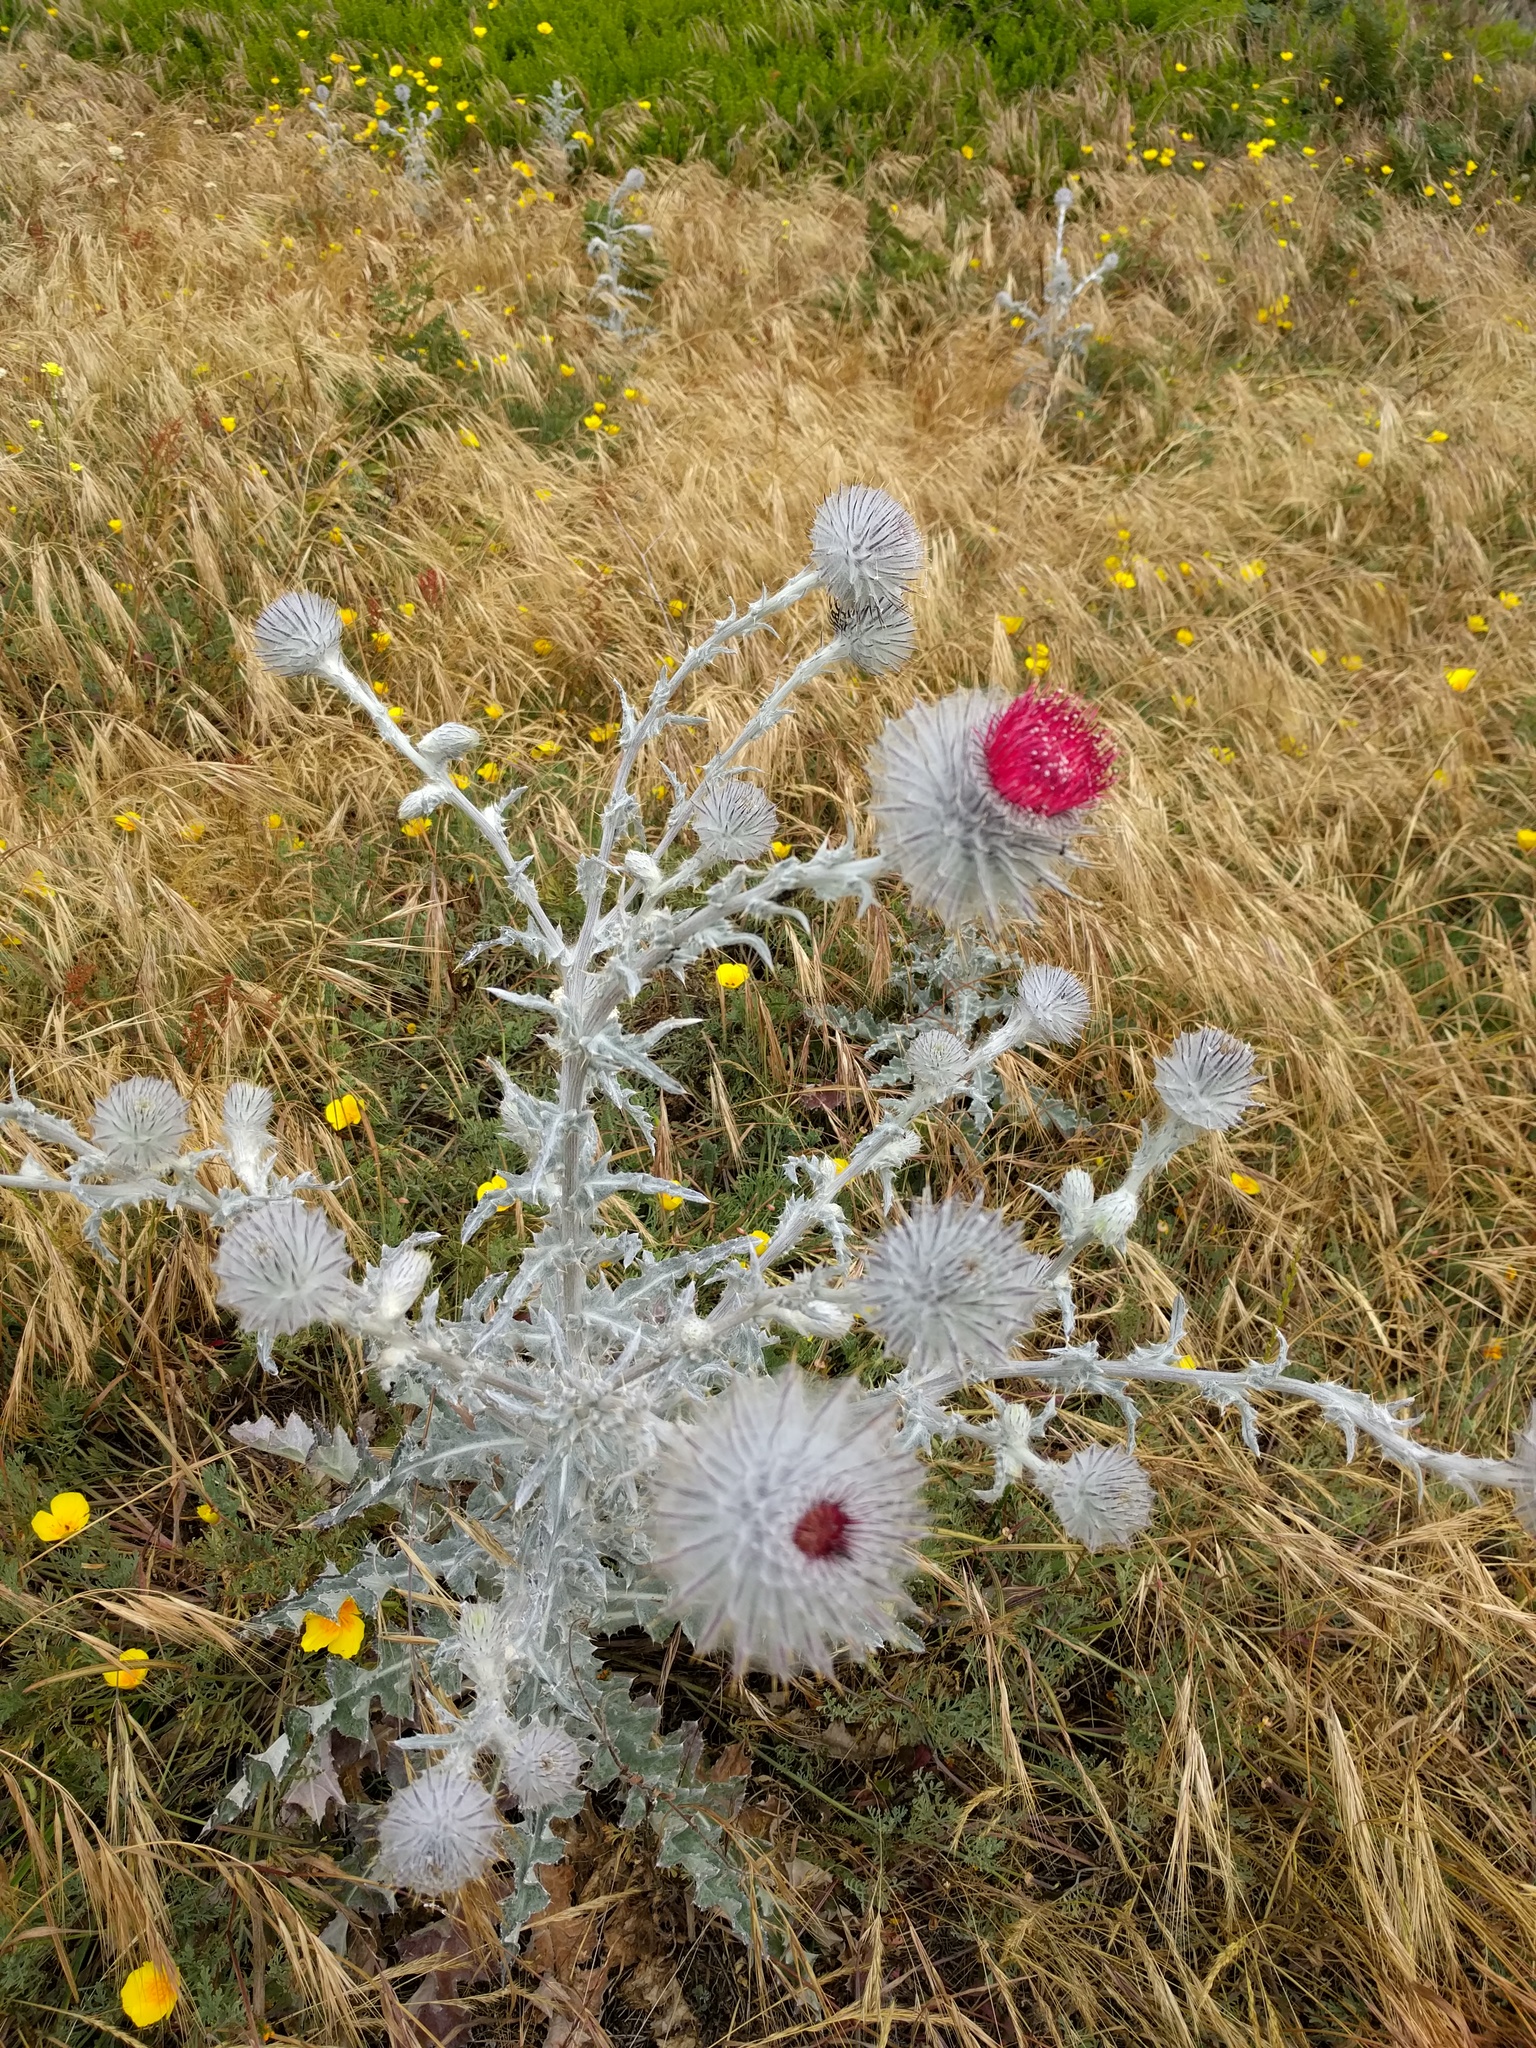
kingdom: Plantae
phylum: Tracheophyta
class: Magnoliopsida
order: Asterales
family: Asteraceae
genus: Cirsium
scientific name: Cirsium occidentale
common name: Western thistle
